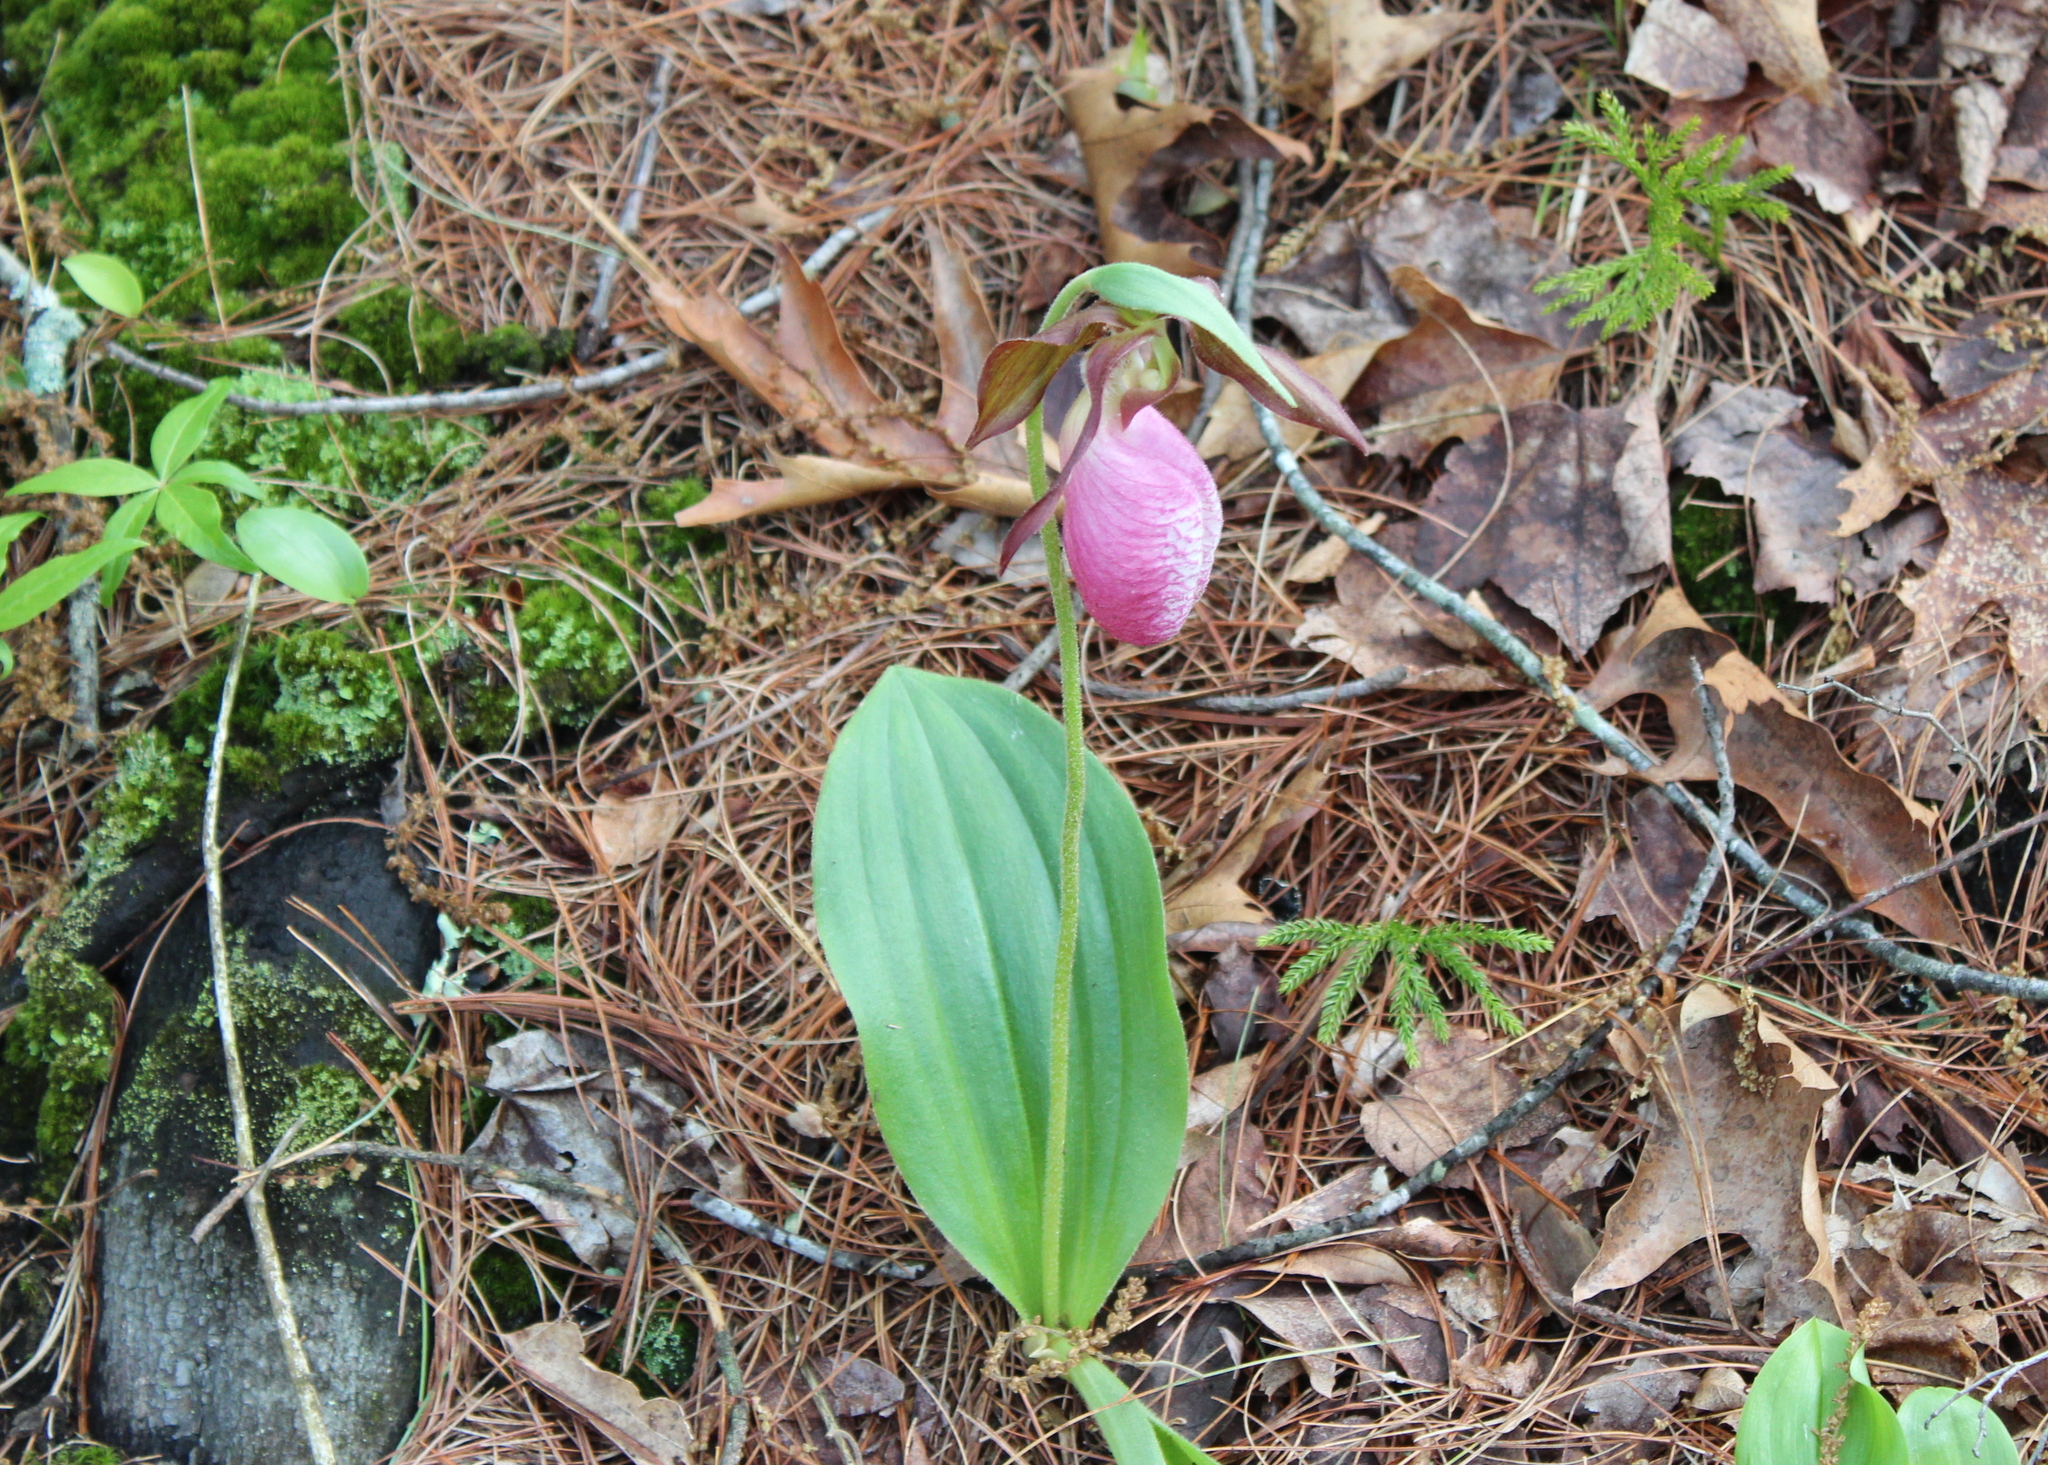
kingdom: Plantae
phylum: Tracheophyta
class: Liliopsida
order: Asparagales
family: Orchidaceae
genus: Cypripedium
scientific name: Cypripedium acaule
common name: Pink lady's-slipper
